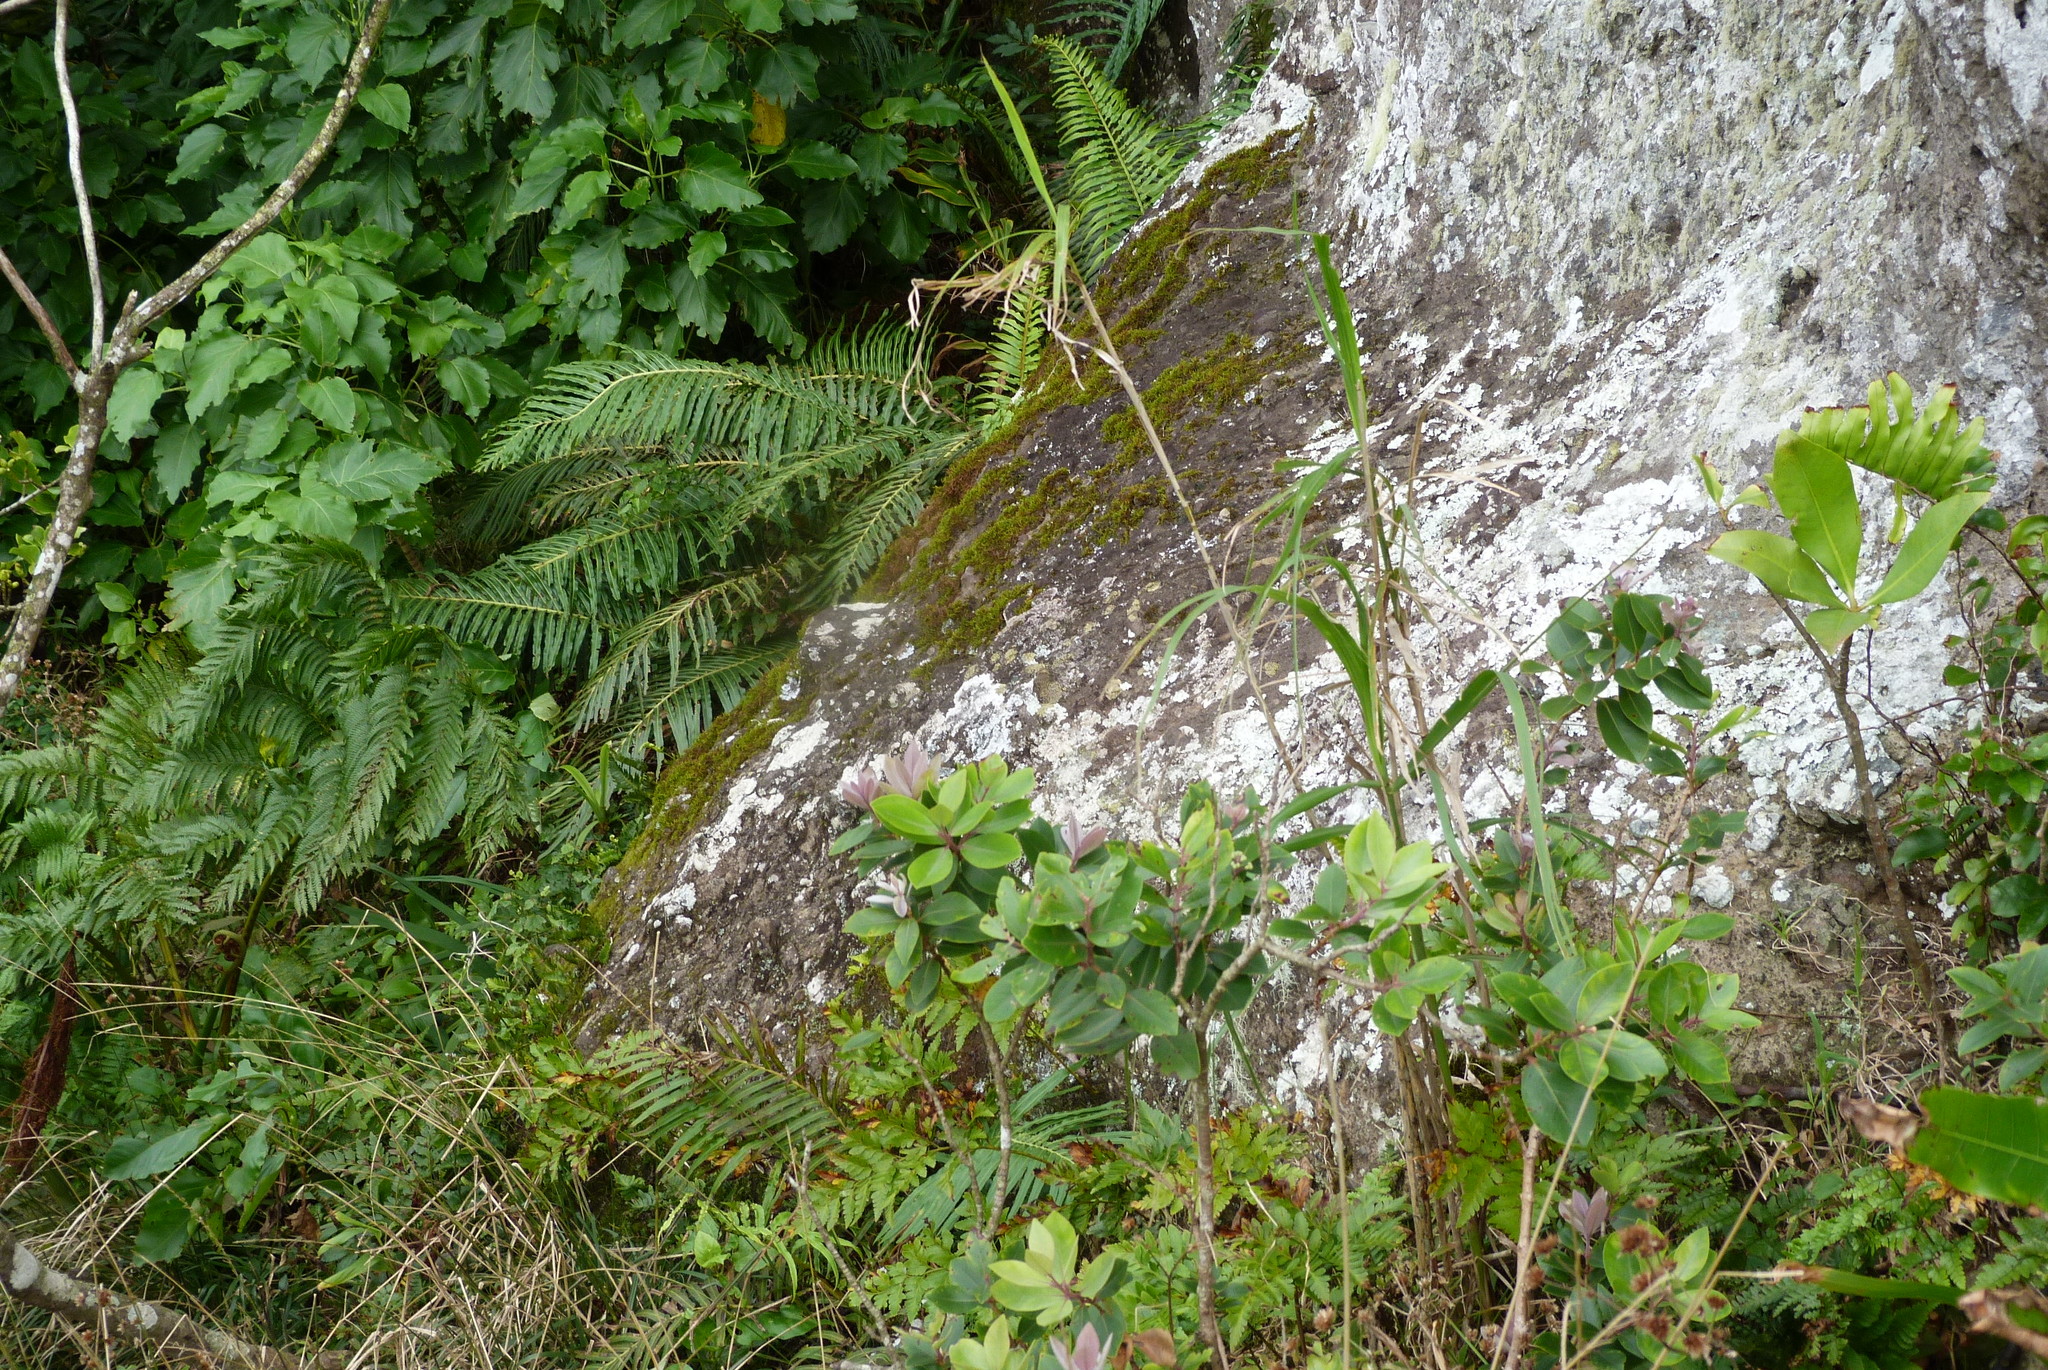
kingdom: Plantae
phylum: Tracheophyta
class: Liliopsida
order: Poales
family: Poaceae
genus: Miscanthus
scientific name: Miscanthus floridulus
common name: Pacific island silvergrass
